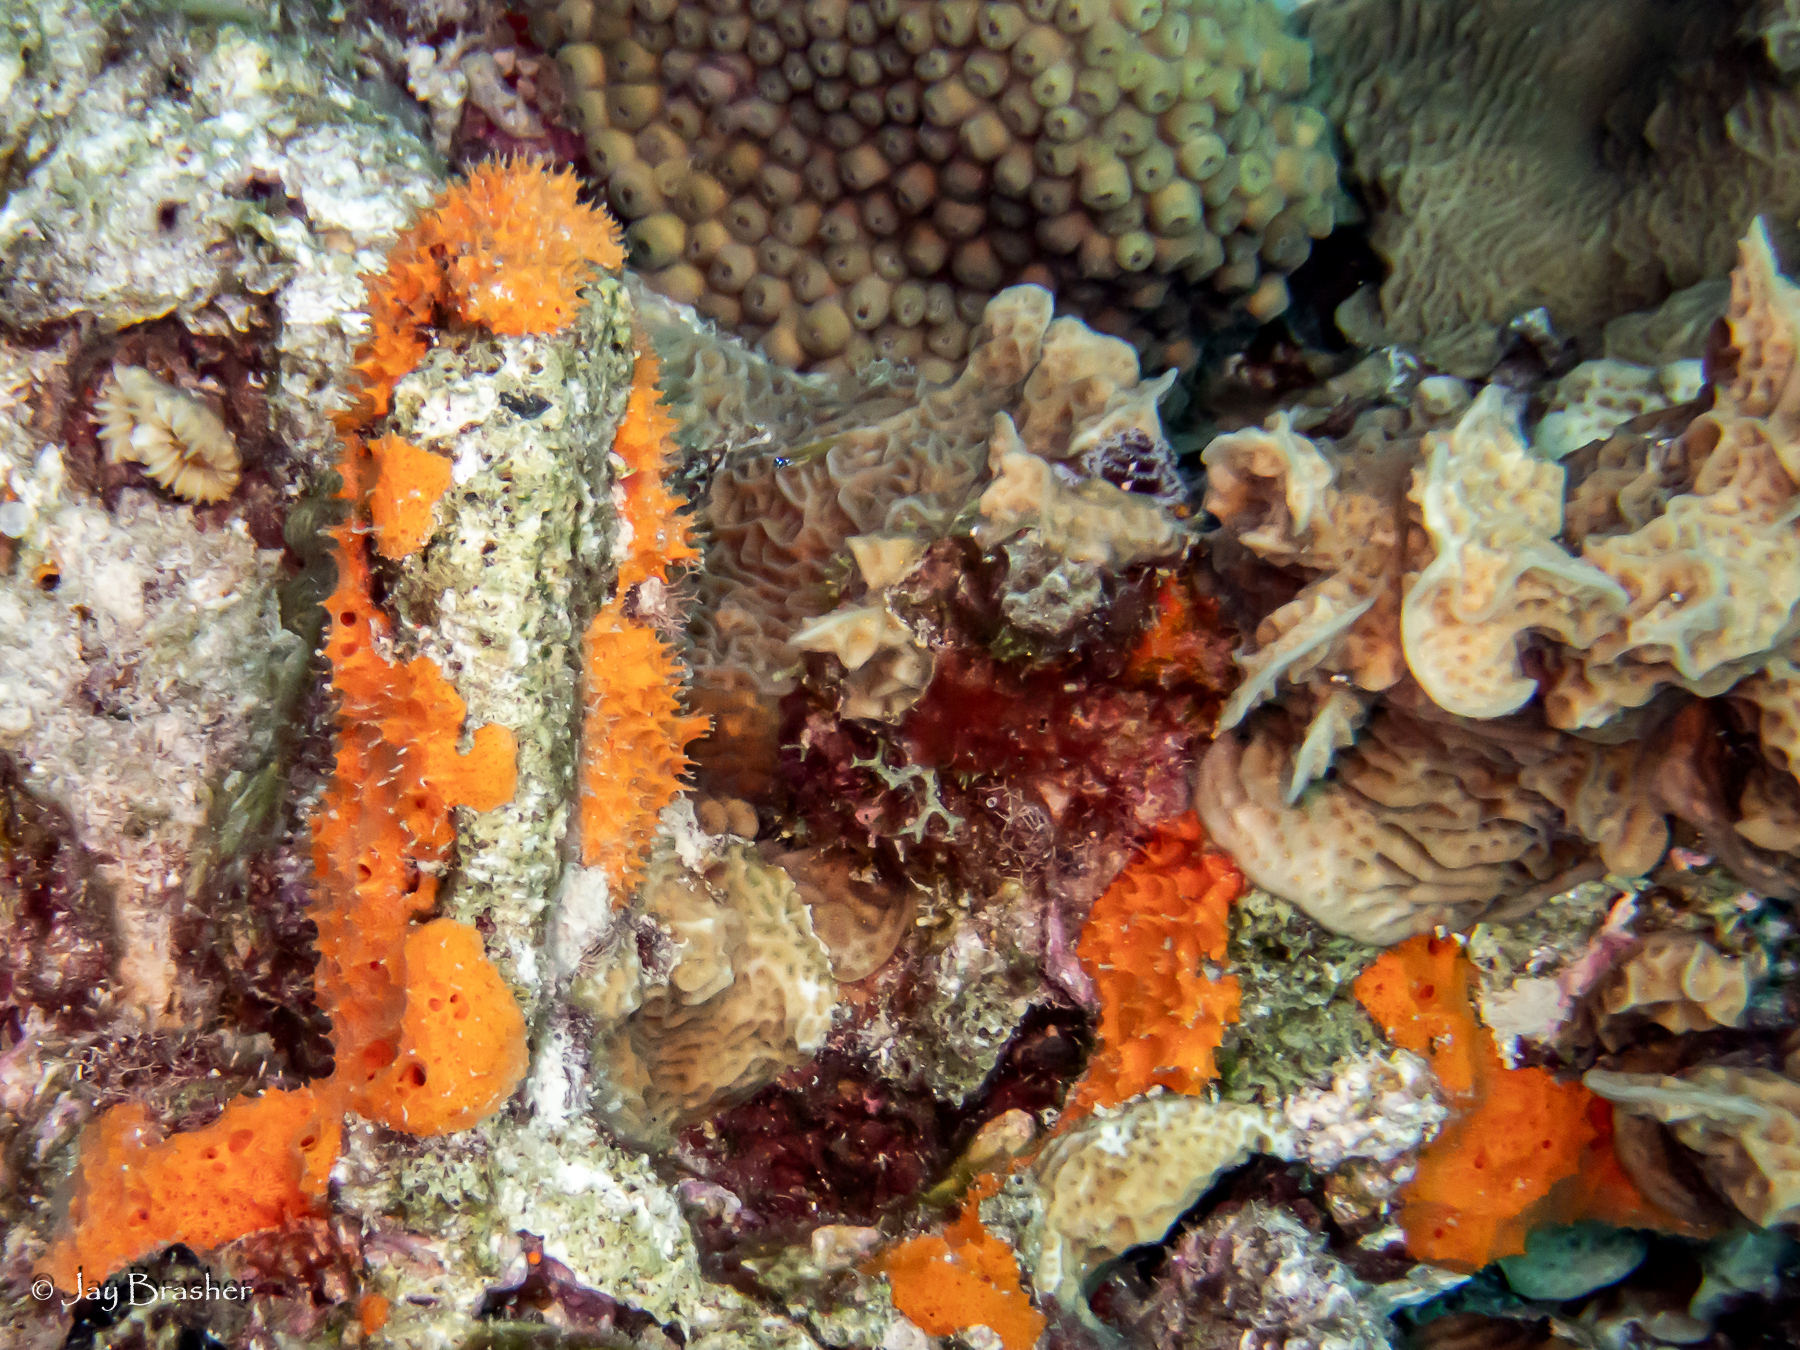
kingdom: Animalia
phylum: Porifera
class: Demospongiae
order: Scopalinida
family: Scopalinidae
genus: Scopalina
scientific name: Scopalina ruetzleri
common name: Orange lumpy encrusting sponge
